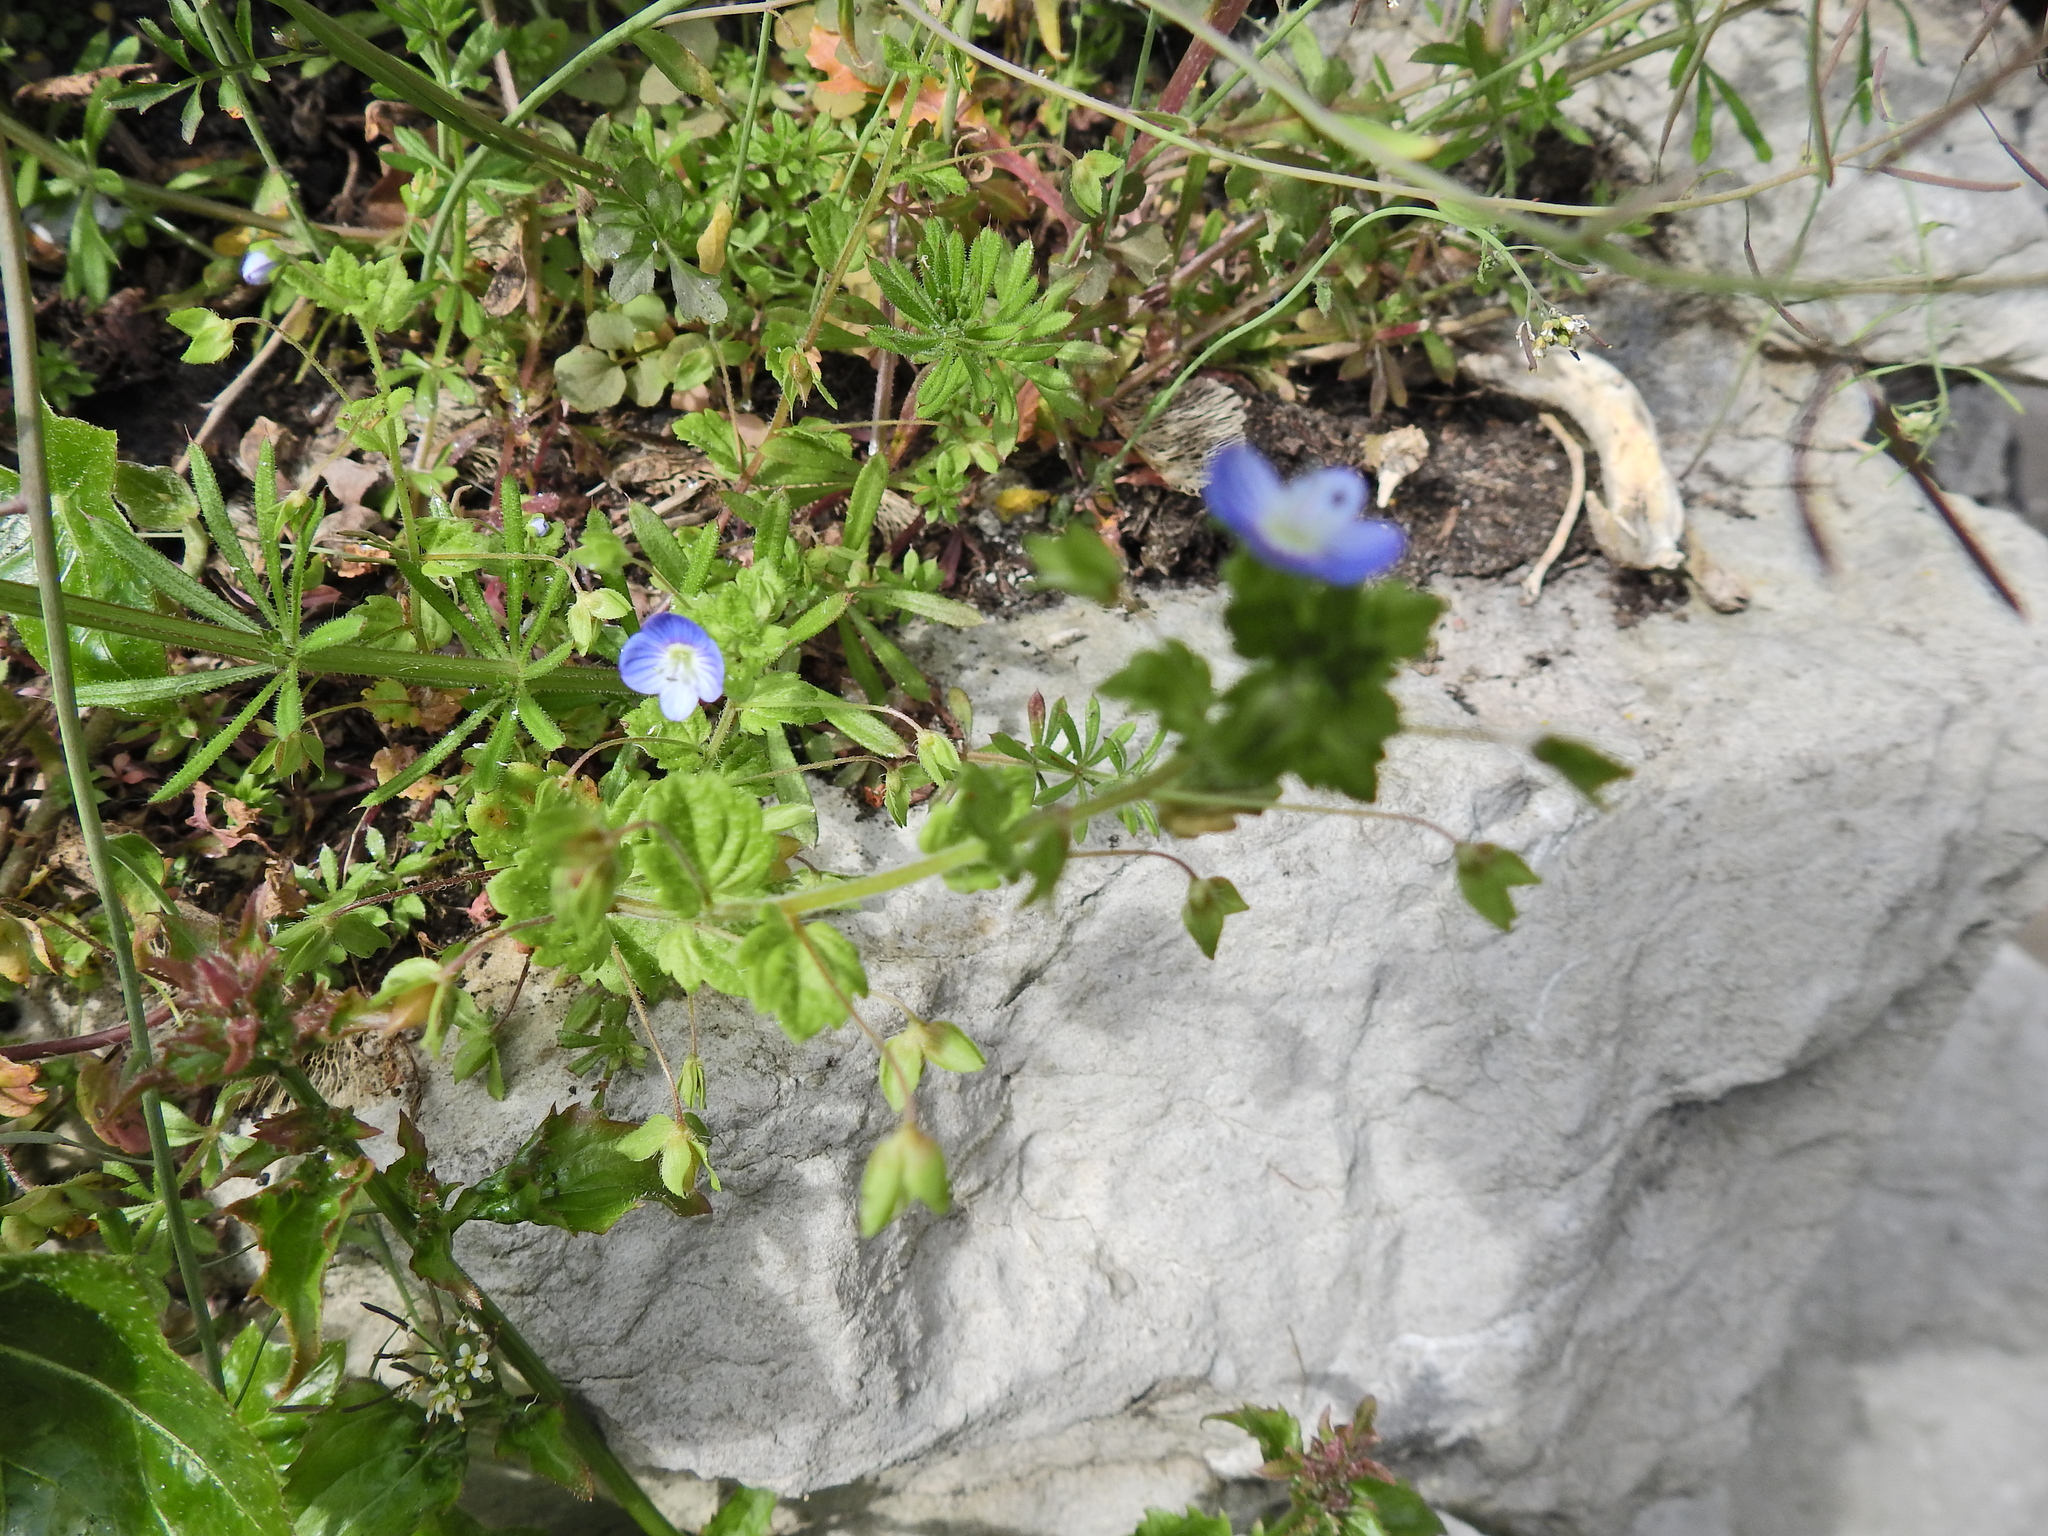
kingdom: Plantae
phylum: Tracheophyta
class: Magnoliopsida
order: Lamiales
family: Plantaginaceae
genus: Veronica
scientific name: Veronica persica
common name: Common field-speedwell
